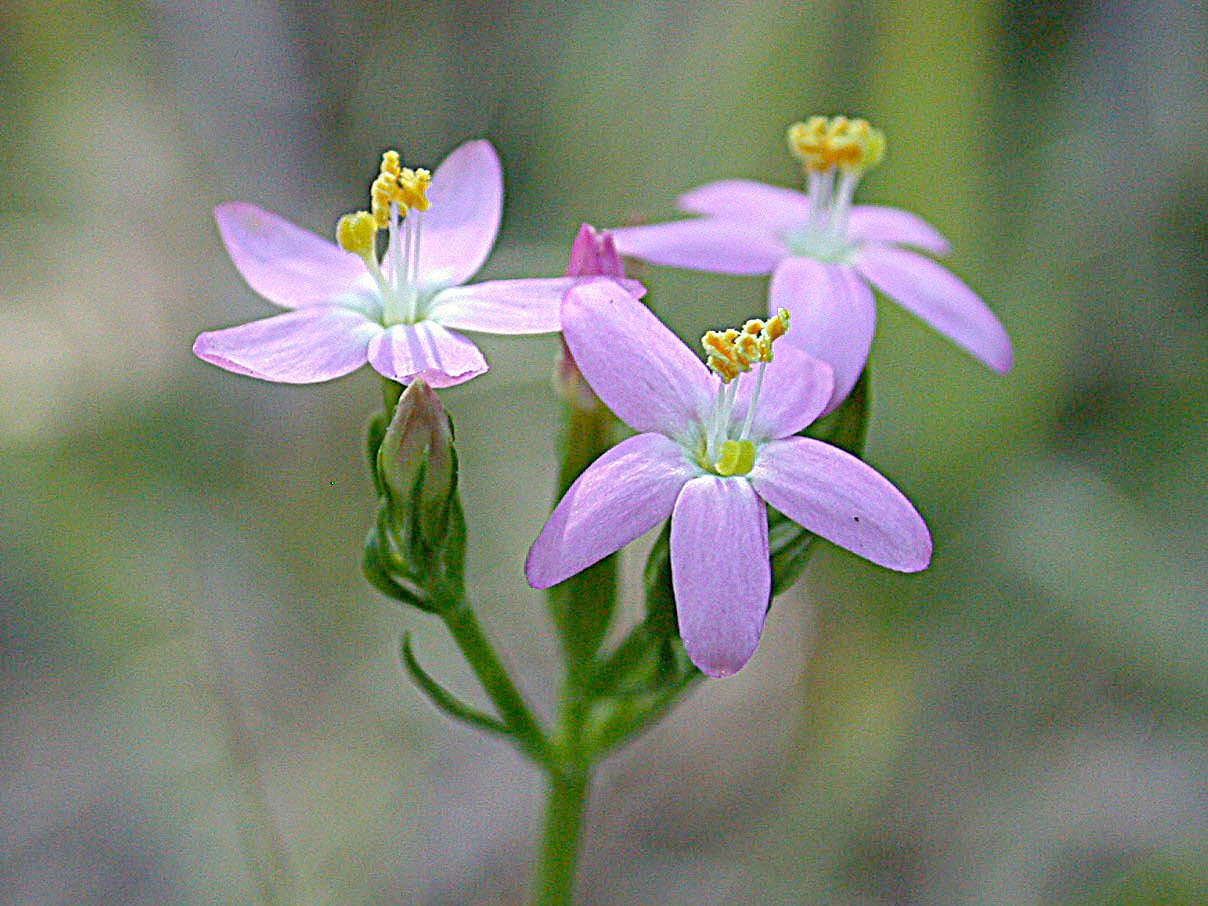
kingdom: Plantae
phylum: Tracheophyta
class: Magnoliopsida
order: Gentianales
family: Gentianaceae
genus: Centaurium
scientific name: Centaurium erythraea
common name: Common centaury
